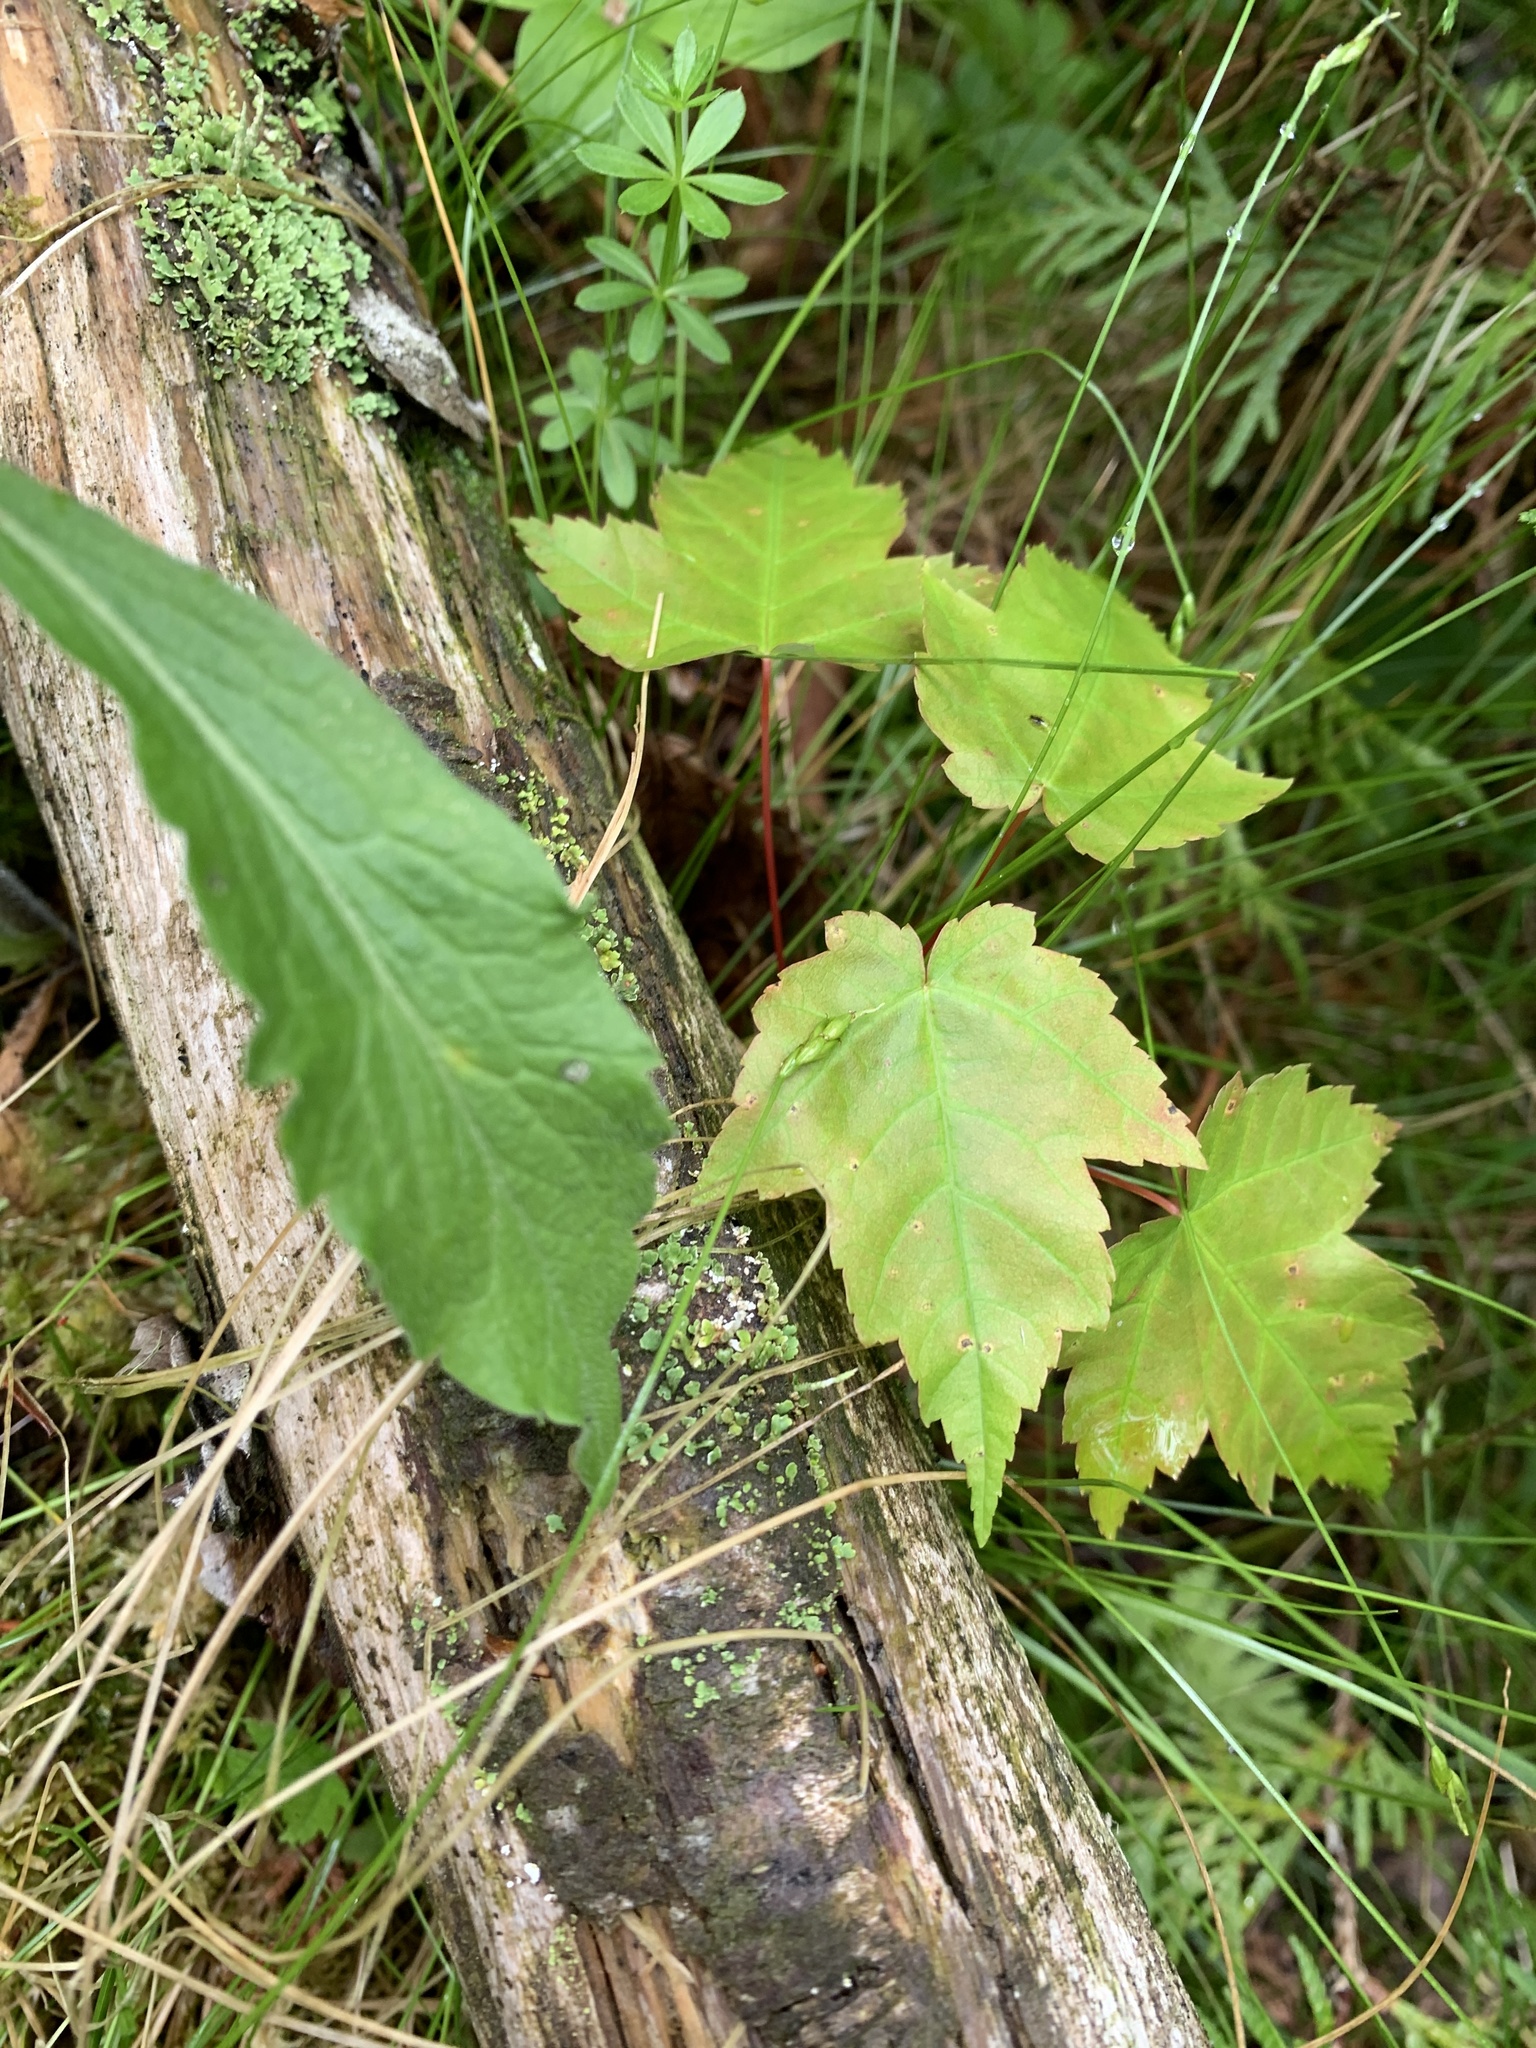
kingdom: Plantae
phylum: Tracheophyta
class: Magnoliopsida
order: Sapindales
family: Sapindaceae
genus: Acer
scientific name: Acer rubrum
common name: Red maple
